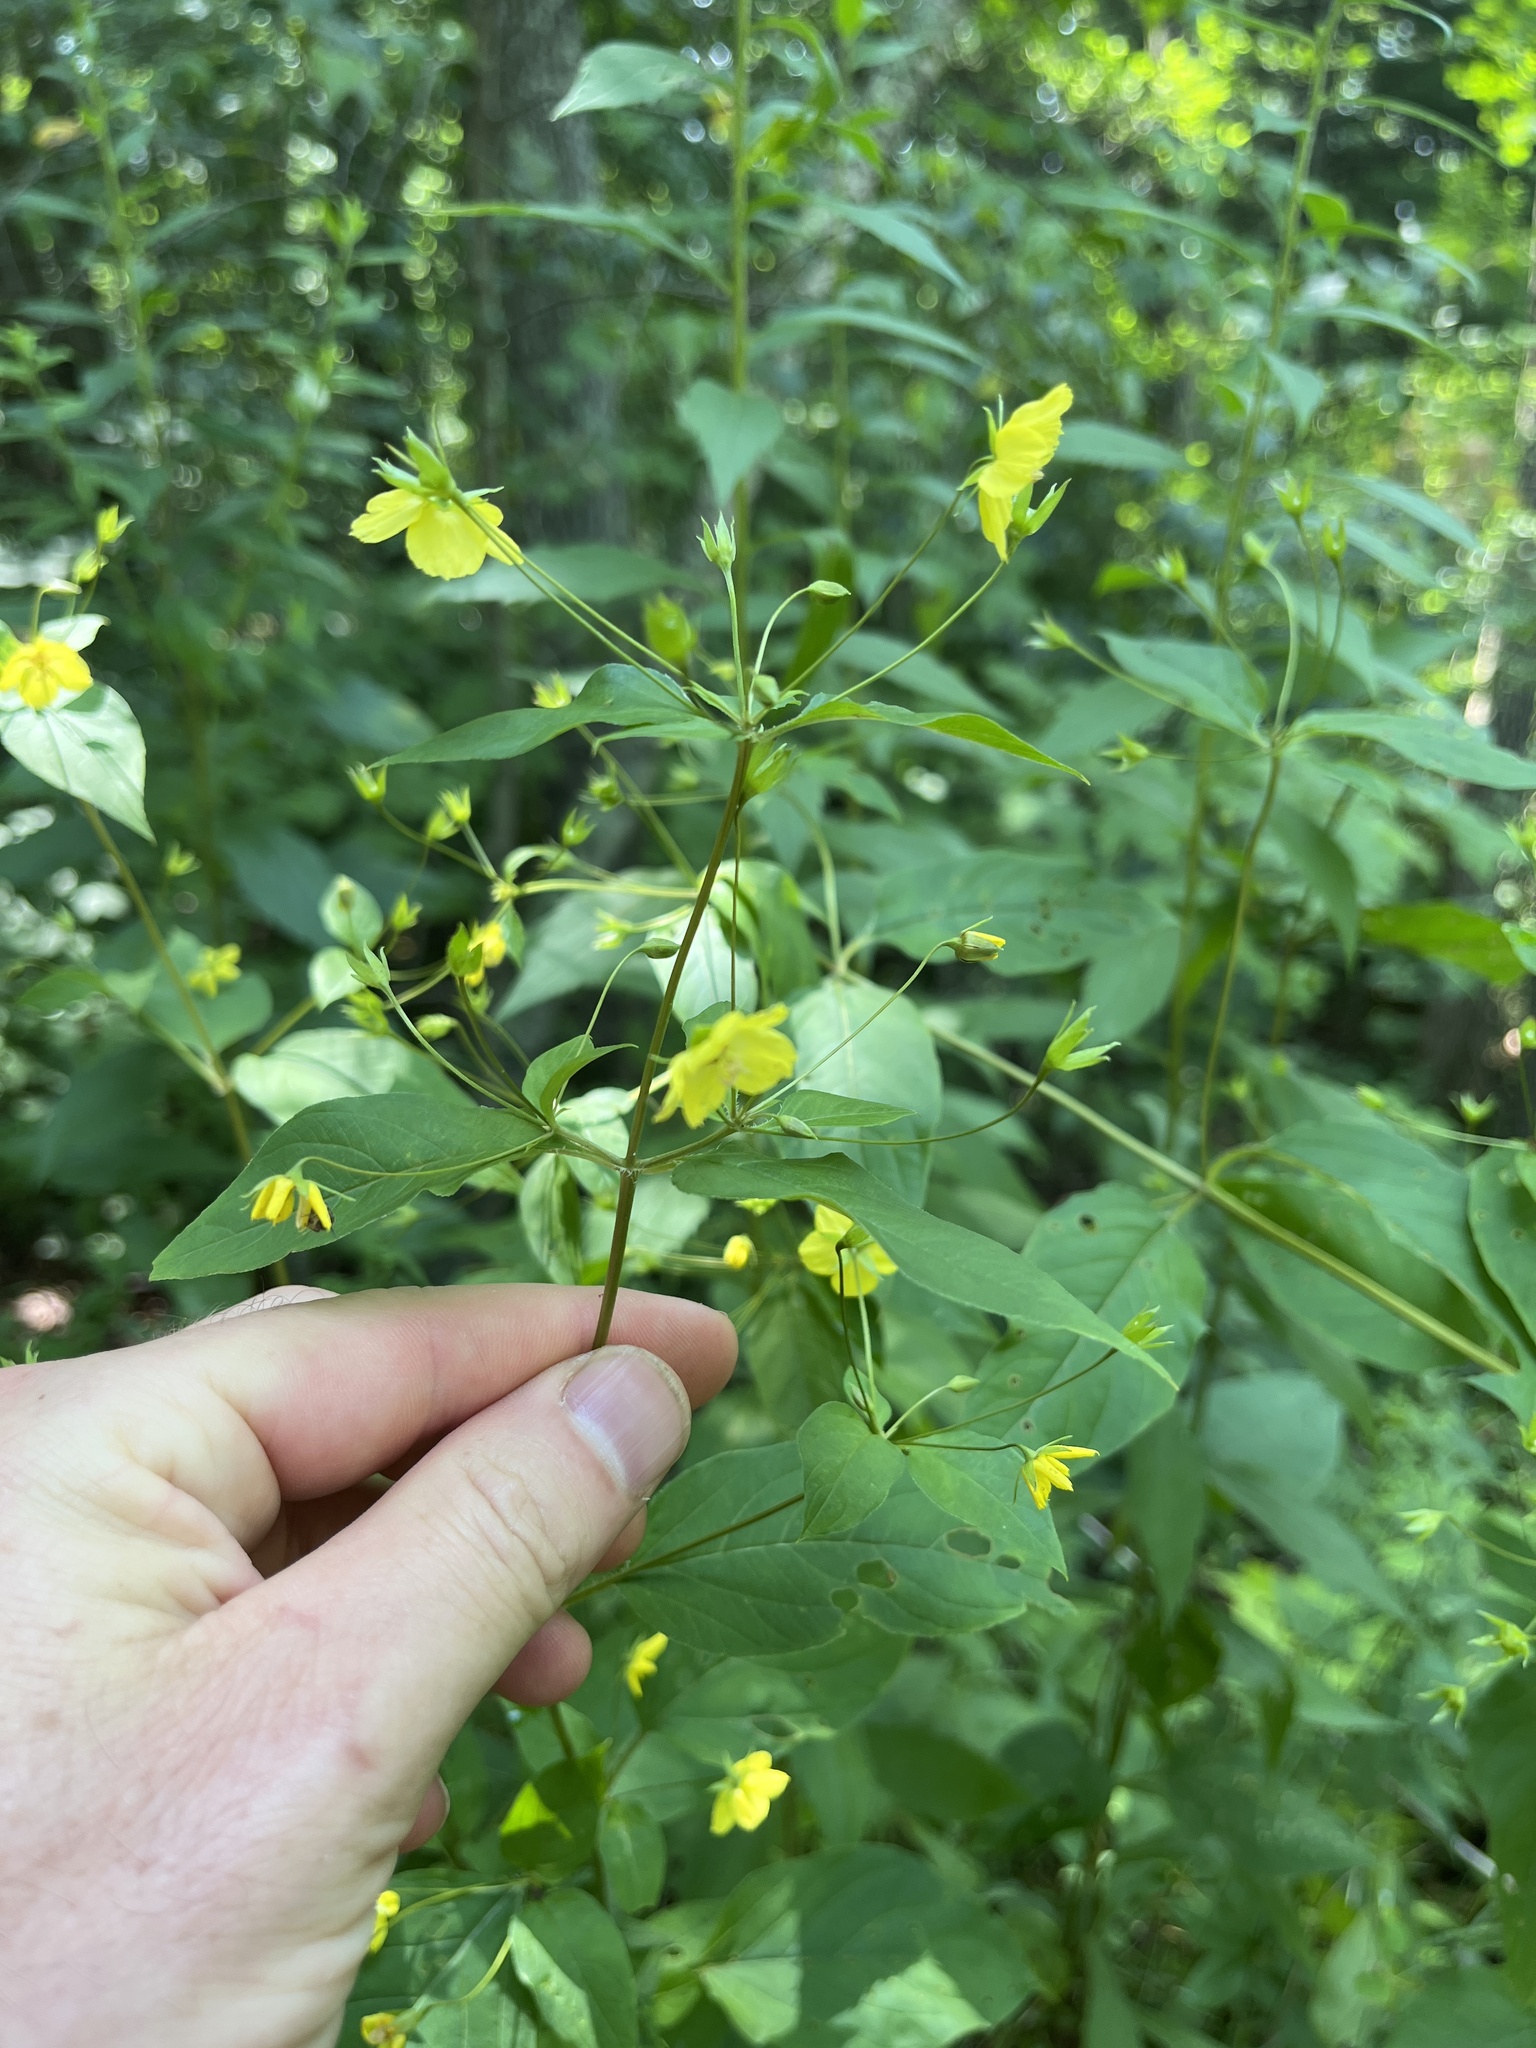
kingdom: Plantae
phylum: Tracheophyta
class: Magnoliopsida
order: Ericales
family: Primulaceae
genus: Lysimachia
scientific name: Lysimachia ciliata
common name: Fringed loosestrife
